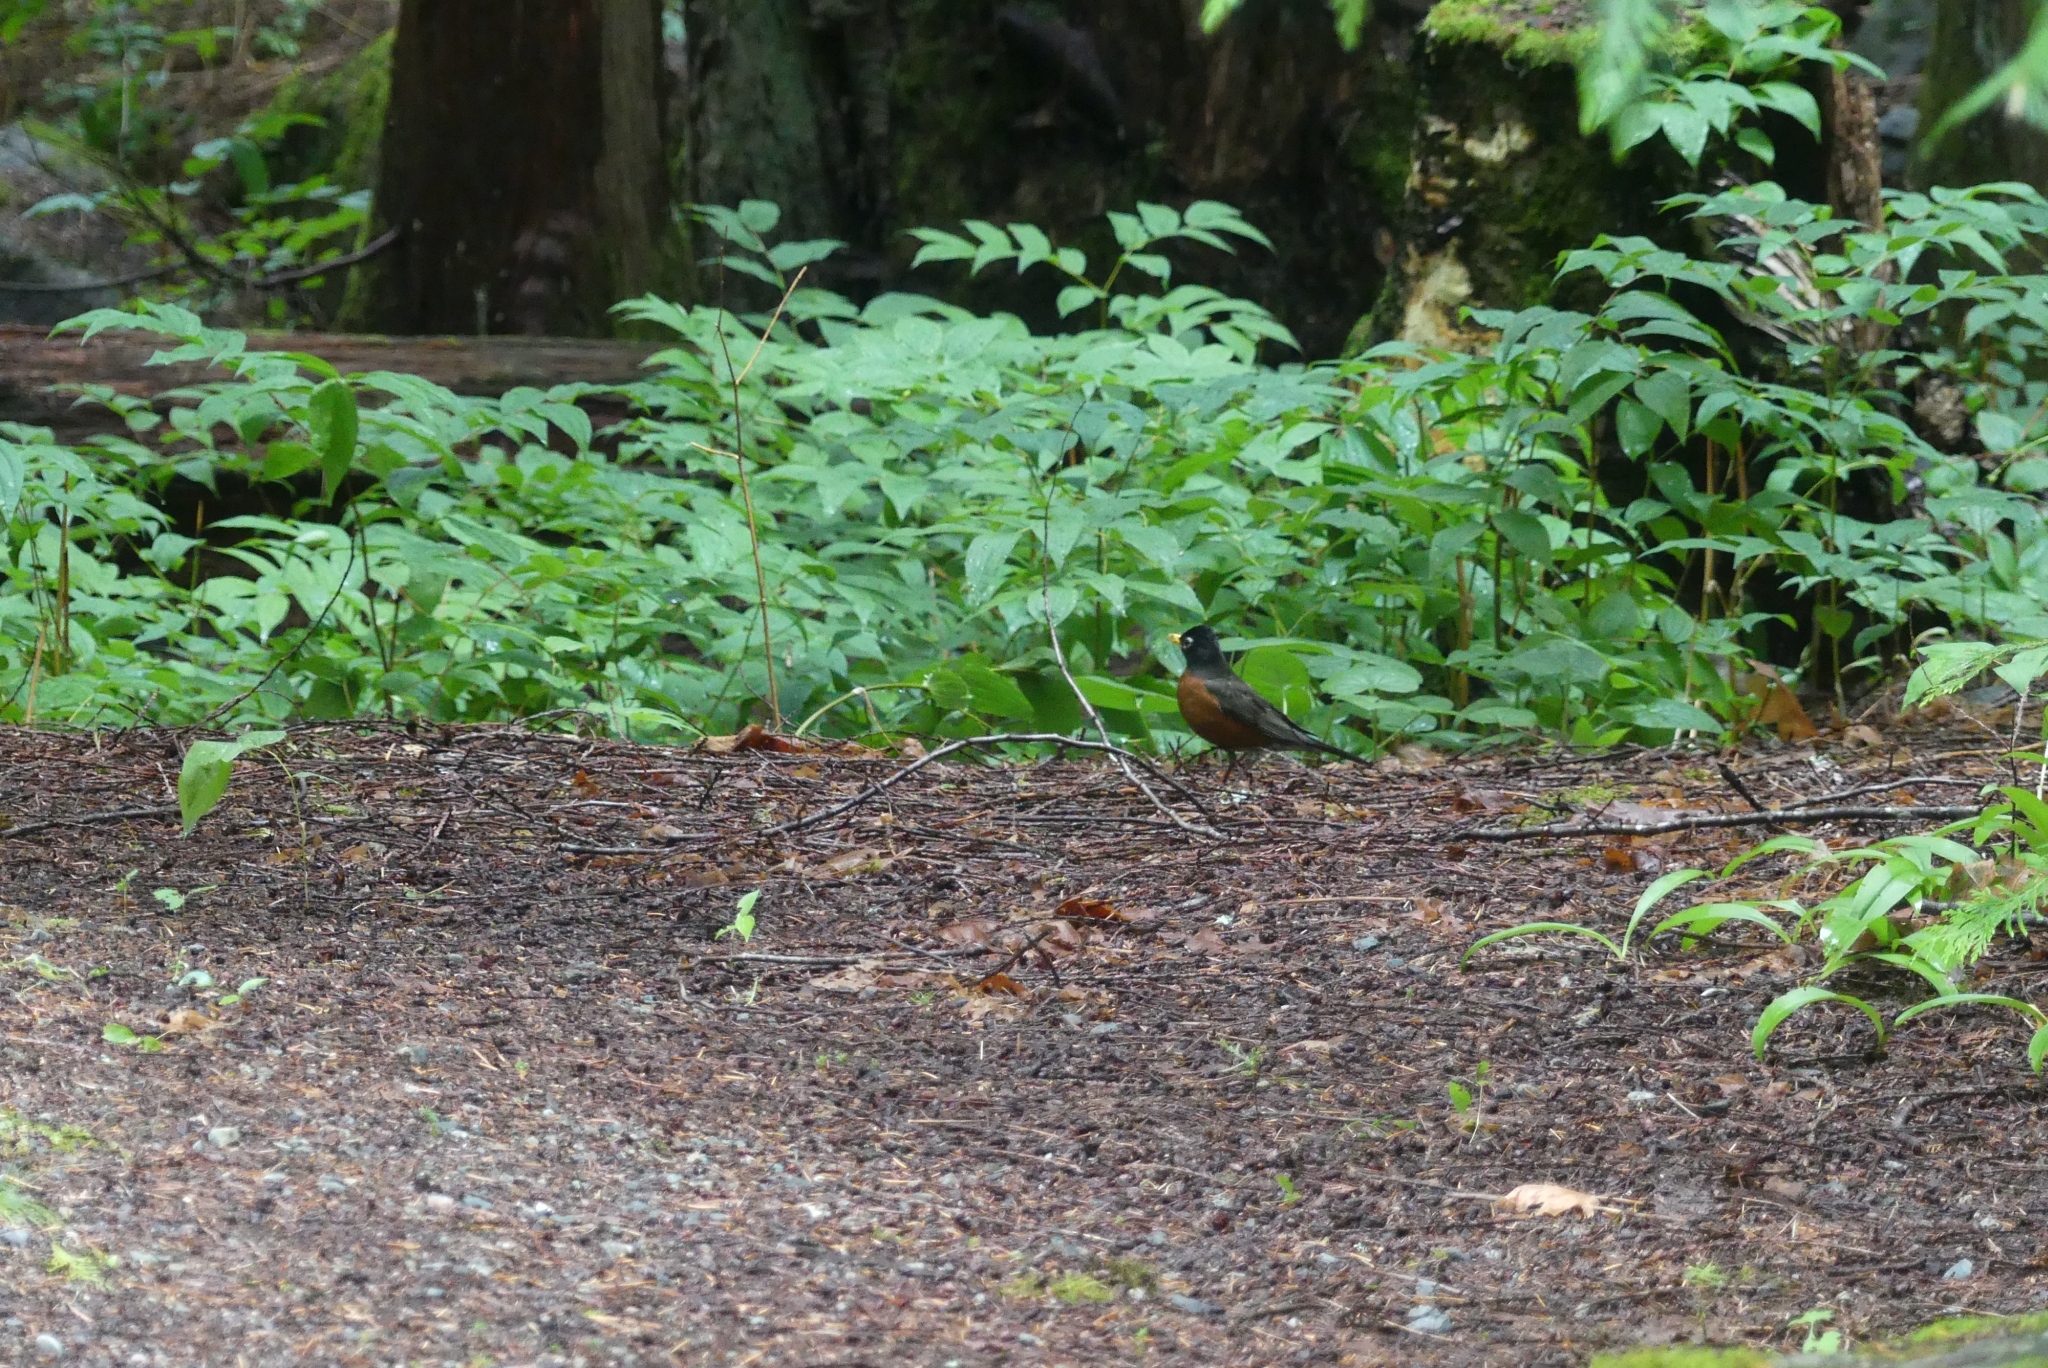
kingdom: Animalia
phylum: Chordata
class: Aves
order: Passeriformes
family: Turdidae
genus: Turdus
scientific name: Turdus migratorius
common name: American robin
